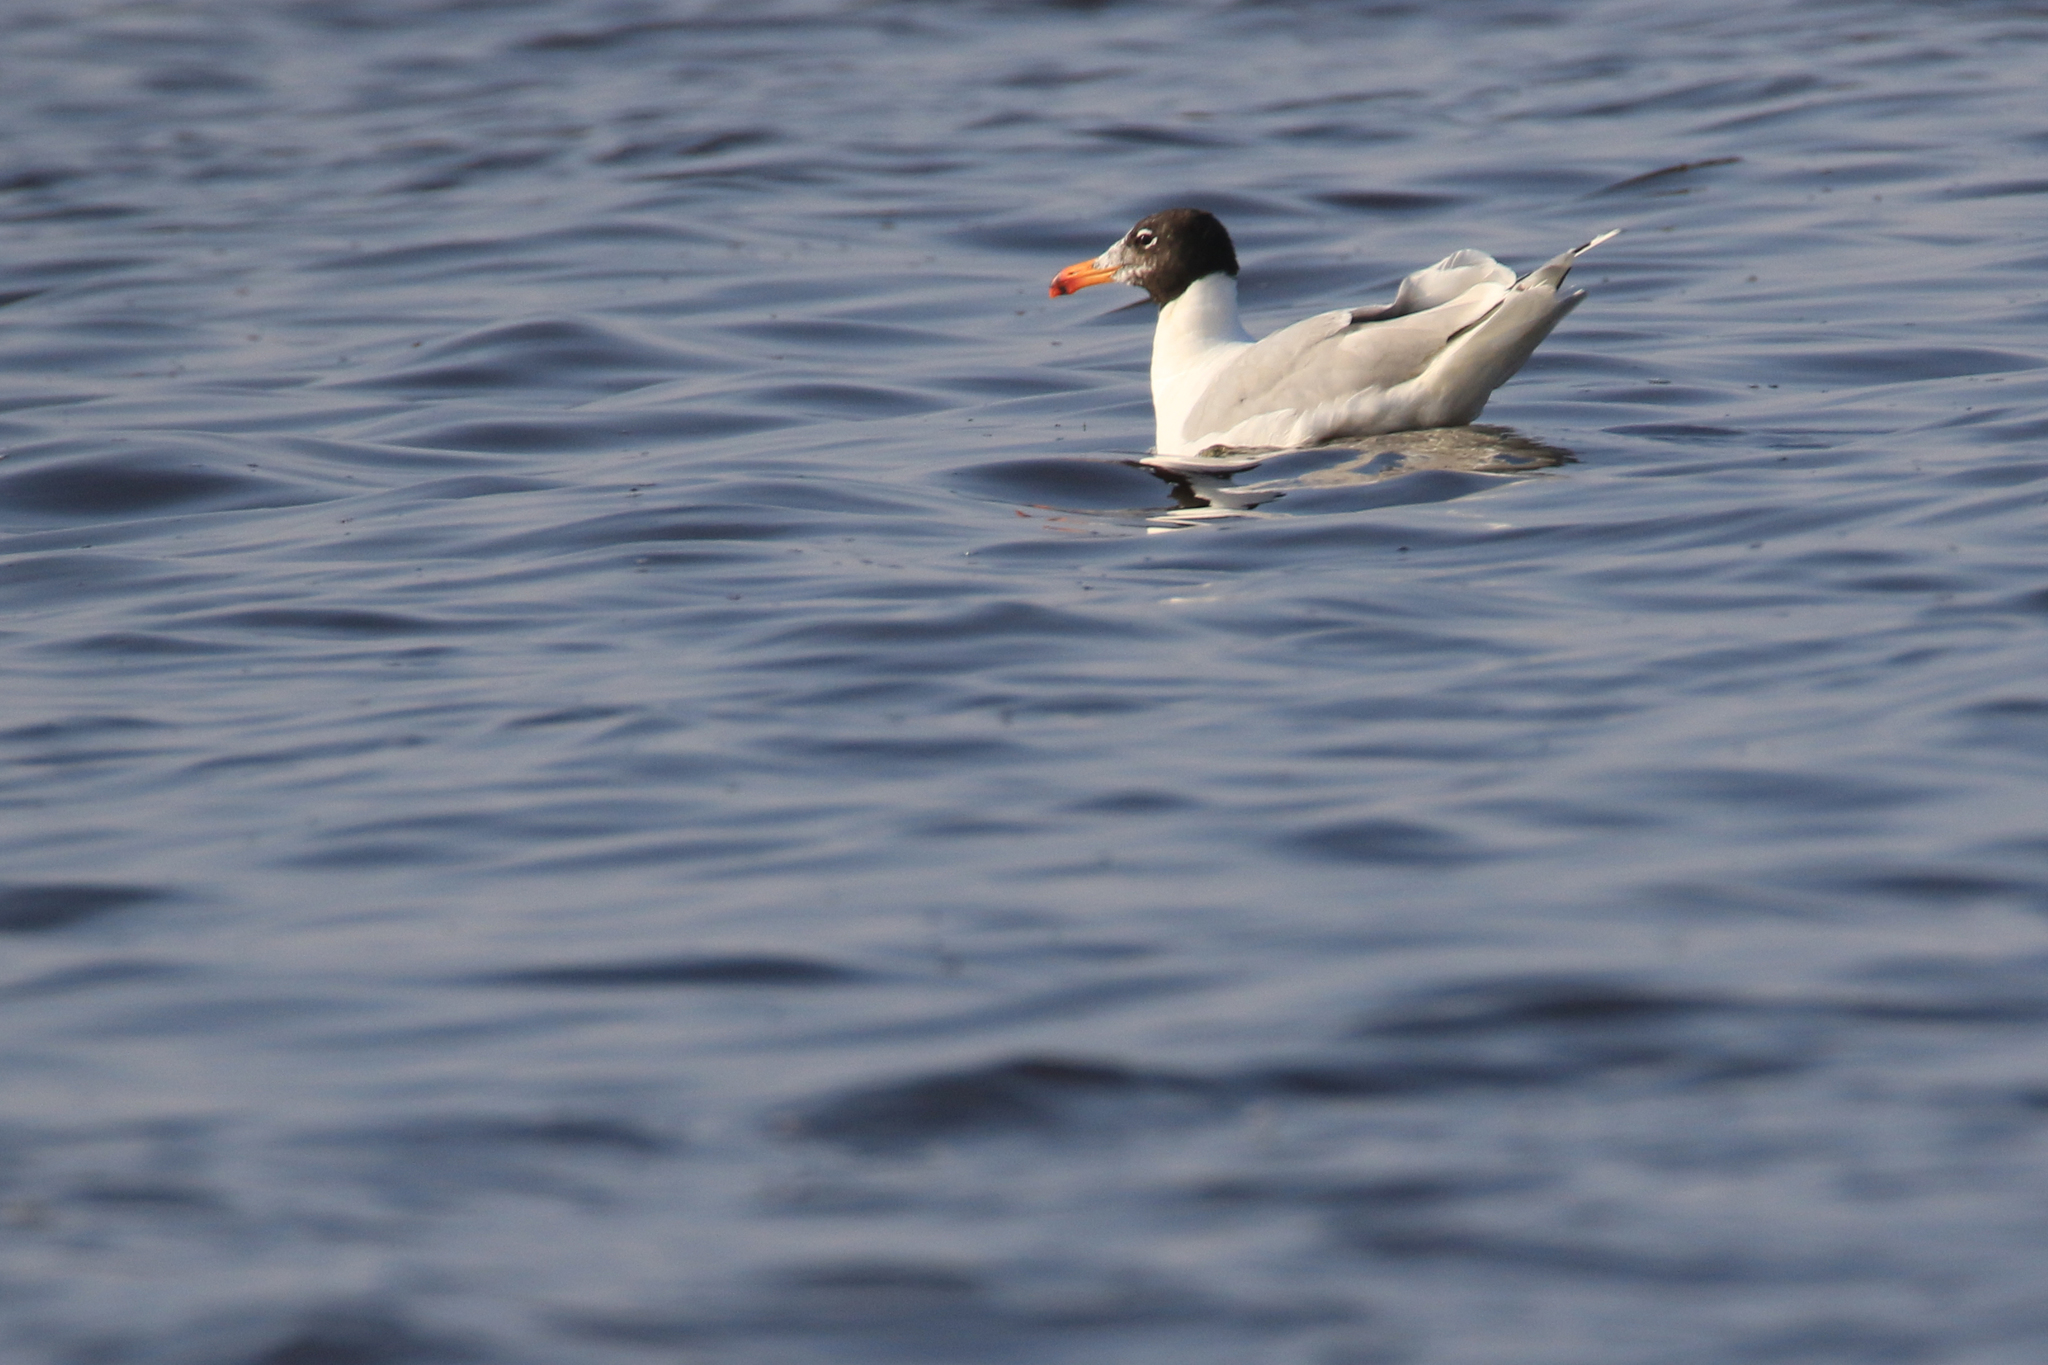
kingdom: Animalia
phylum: Chordata
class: Aves
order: Charadriiformes
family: Laridae
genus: Ichthyaetus
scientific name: Ichthyaetus ichthyaetus
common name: Pallas's gull
